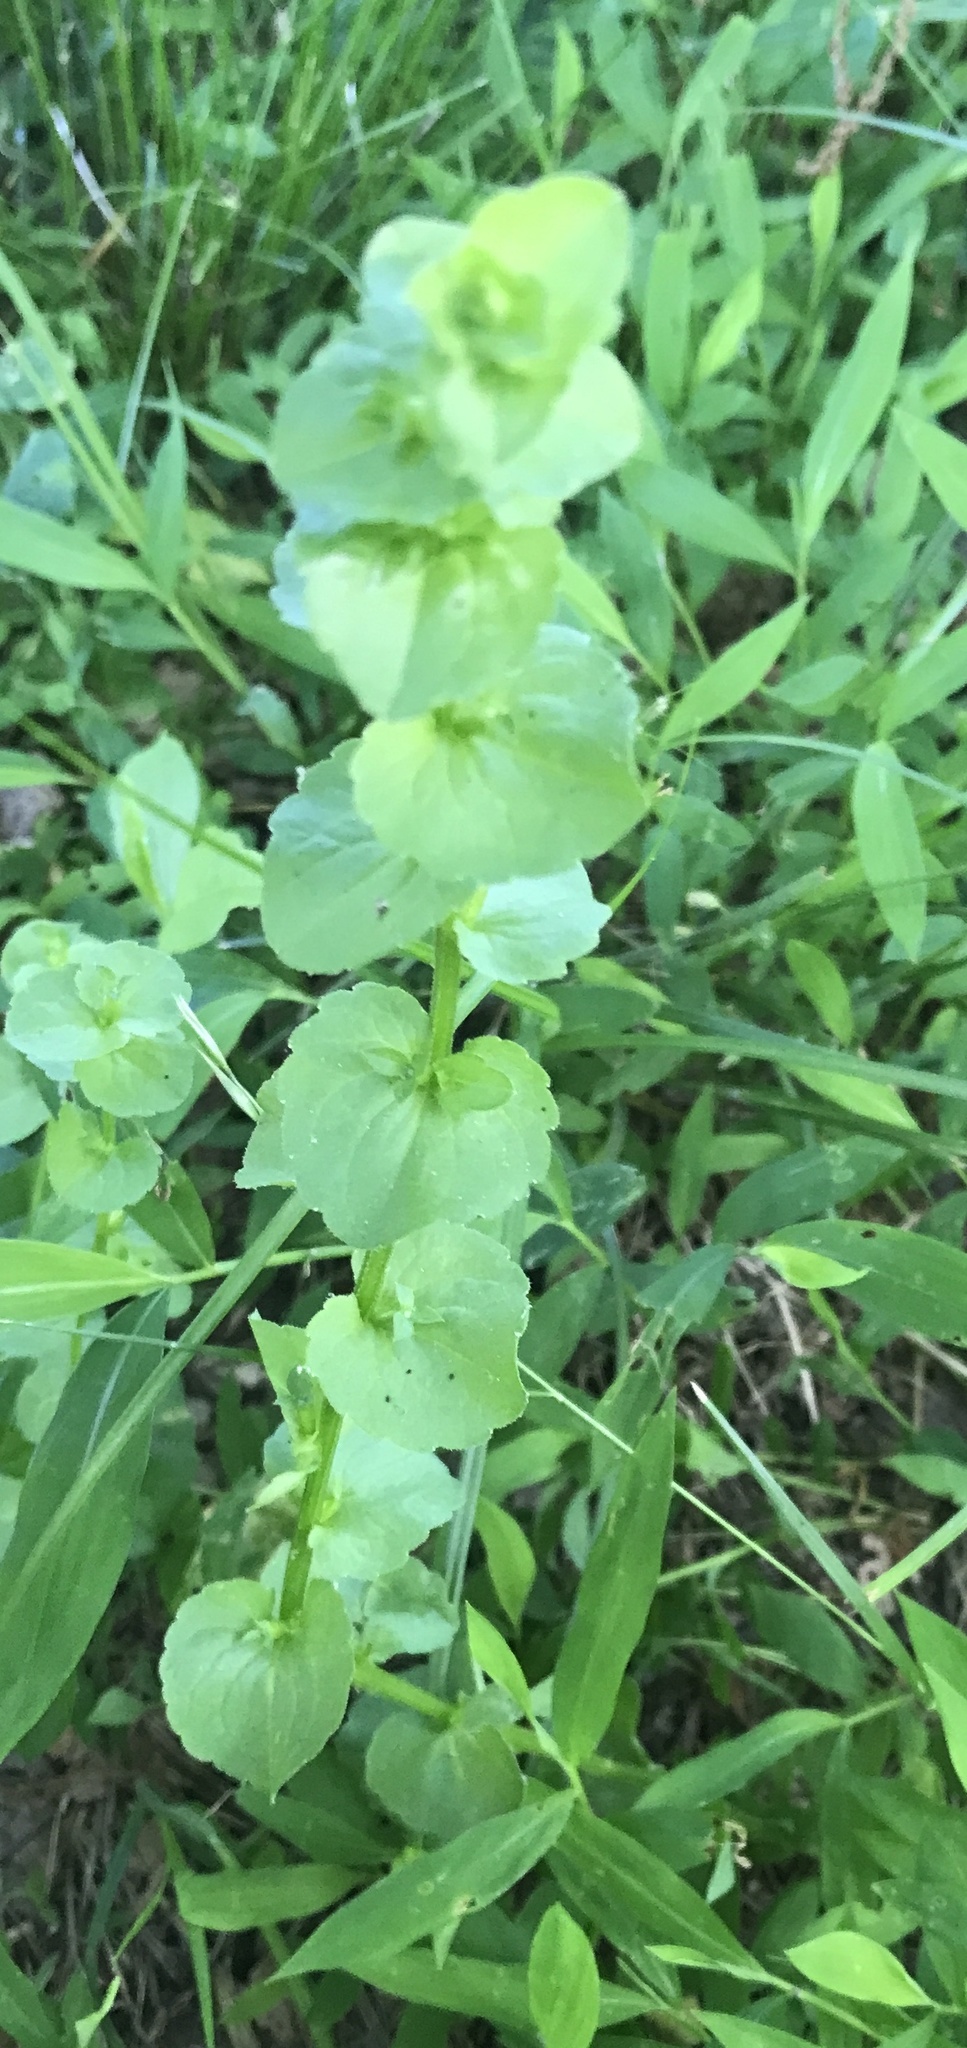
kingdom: Plantae
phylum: Tracheophyta
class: Magnoliopsida
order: Asterales
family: Campanulaceae
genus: Triodanis
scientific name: Triodanis perfoliata
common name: Clasping venus' looking-glass
